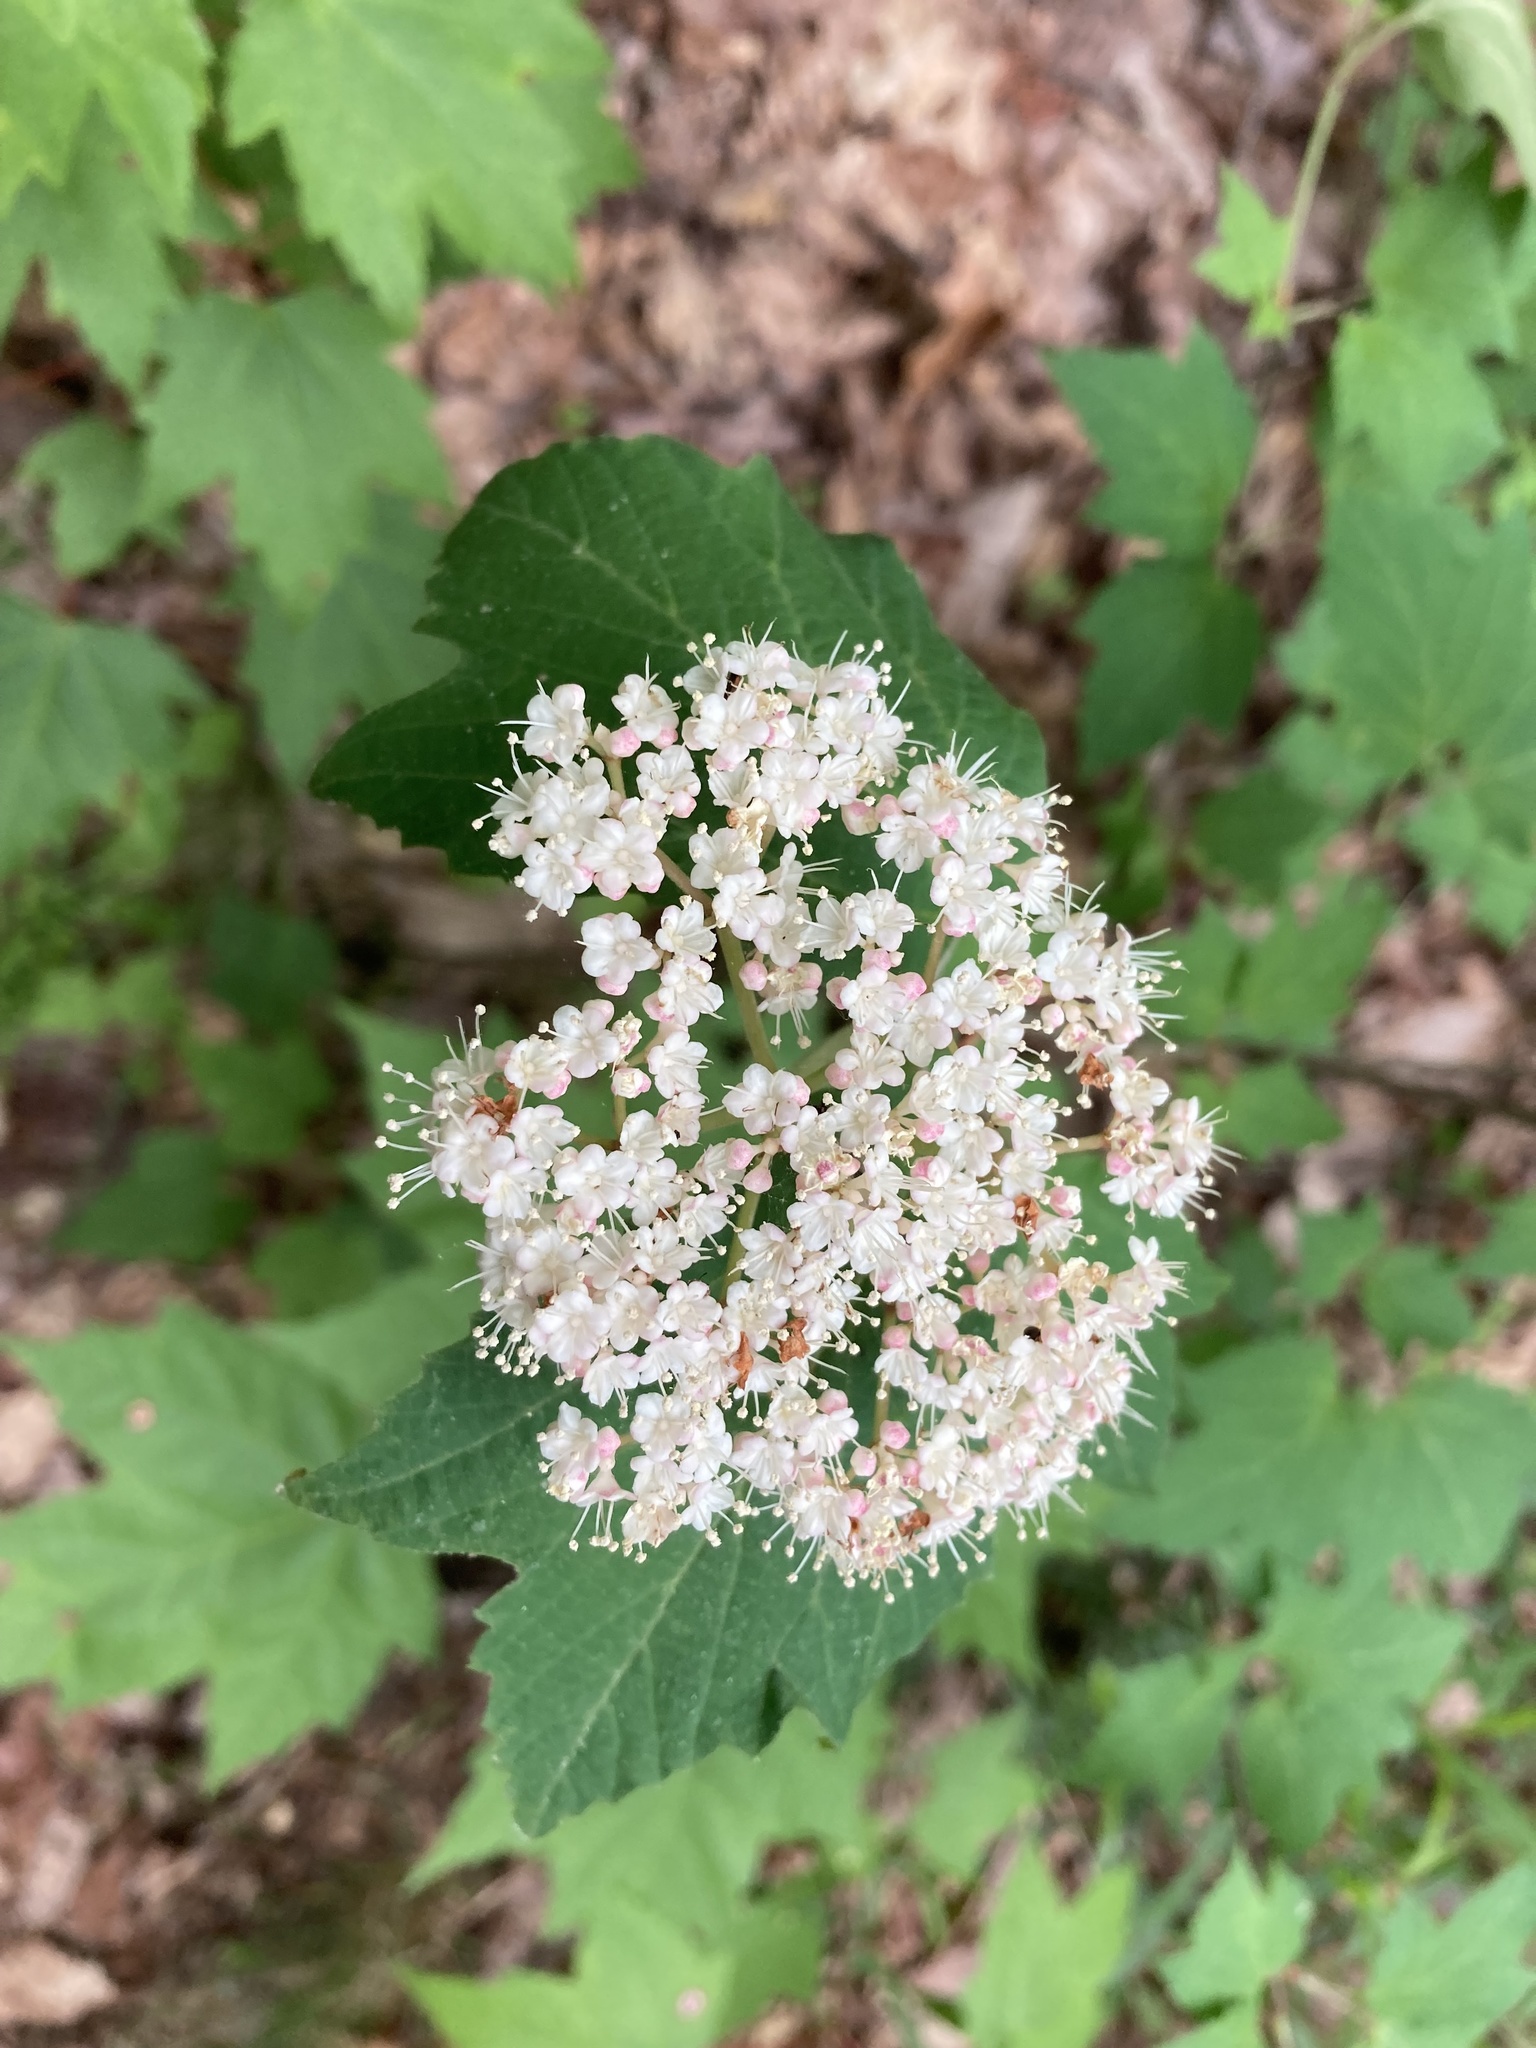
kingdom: Plantae
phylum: Tracheophyta
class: Magnoliopsida
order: Dipsacales
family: Viburnaceae
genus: Viburnum
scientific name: Viburnum acerifolium
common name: Dockmackie
